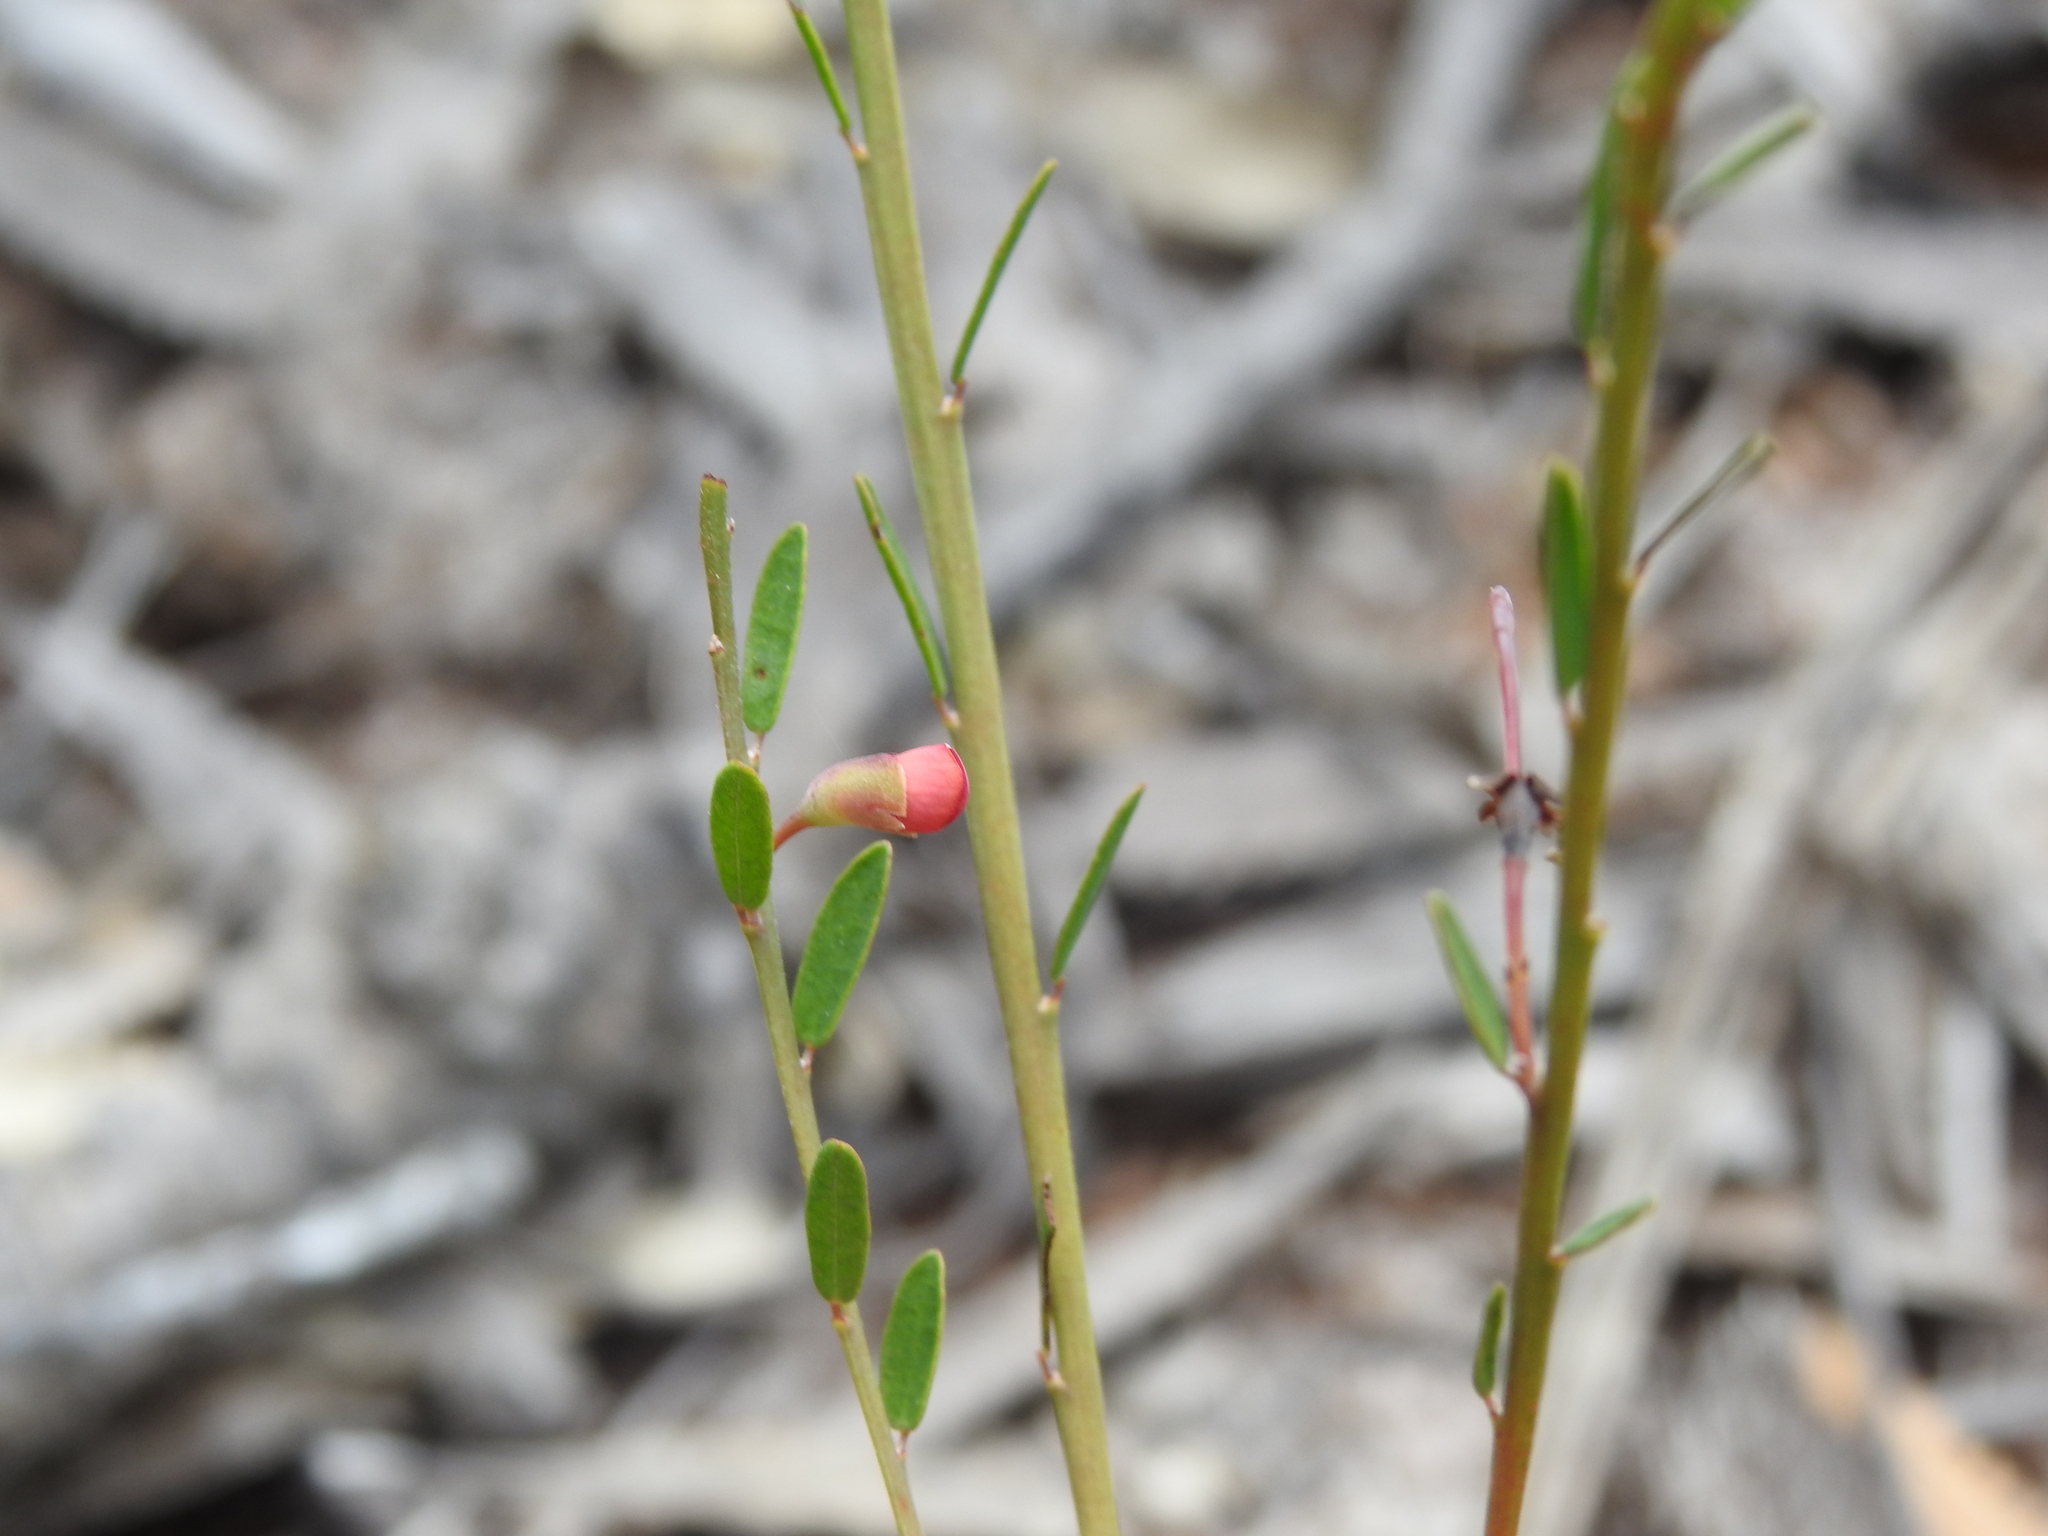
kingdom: Plantae
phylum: Tracheophyta
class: Magnoliopsida
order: Fabales
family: Fabaceae
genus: Bossiaea
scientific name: Bossiaea heterophylla
